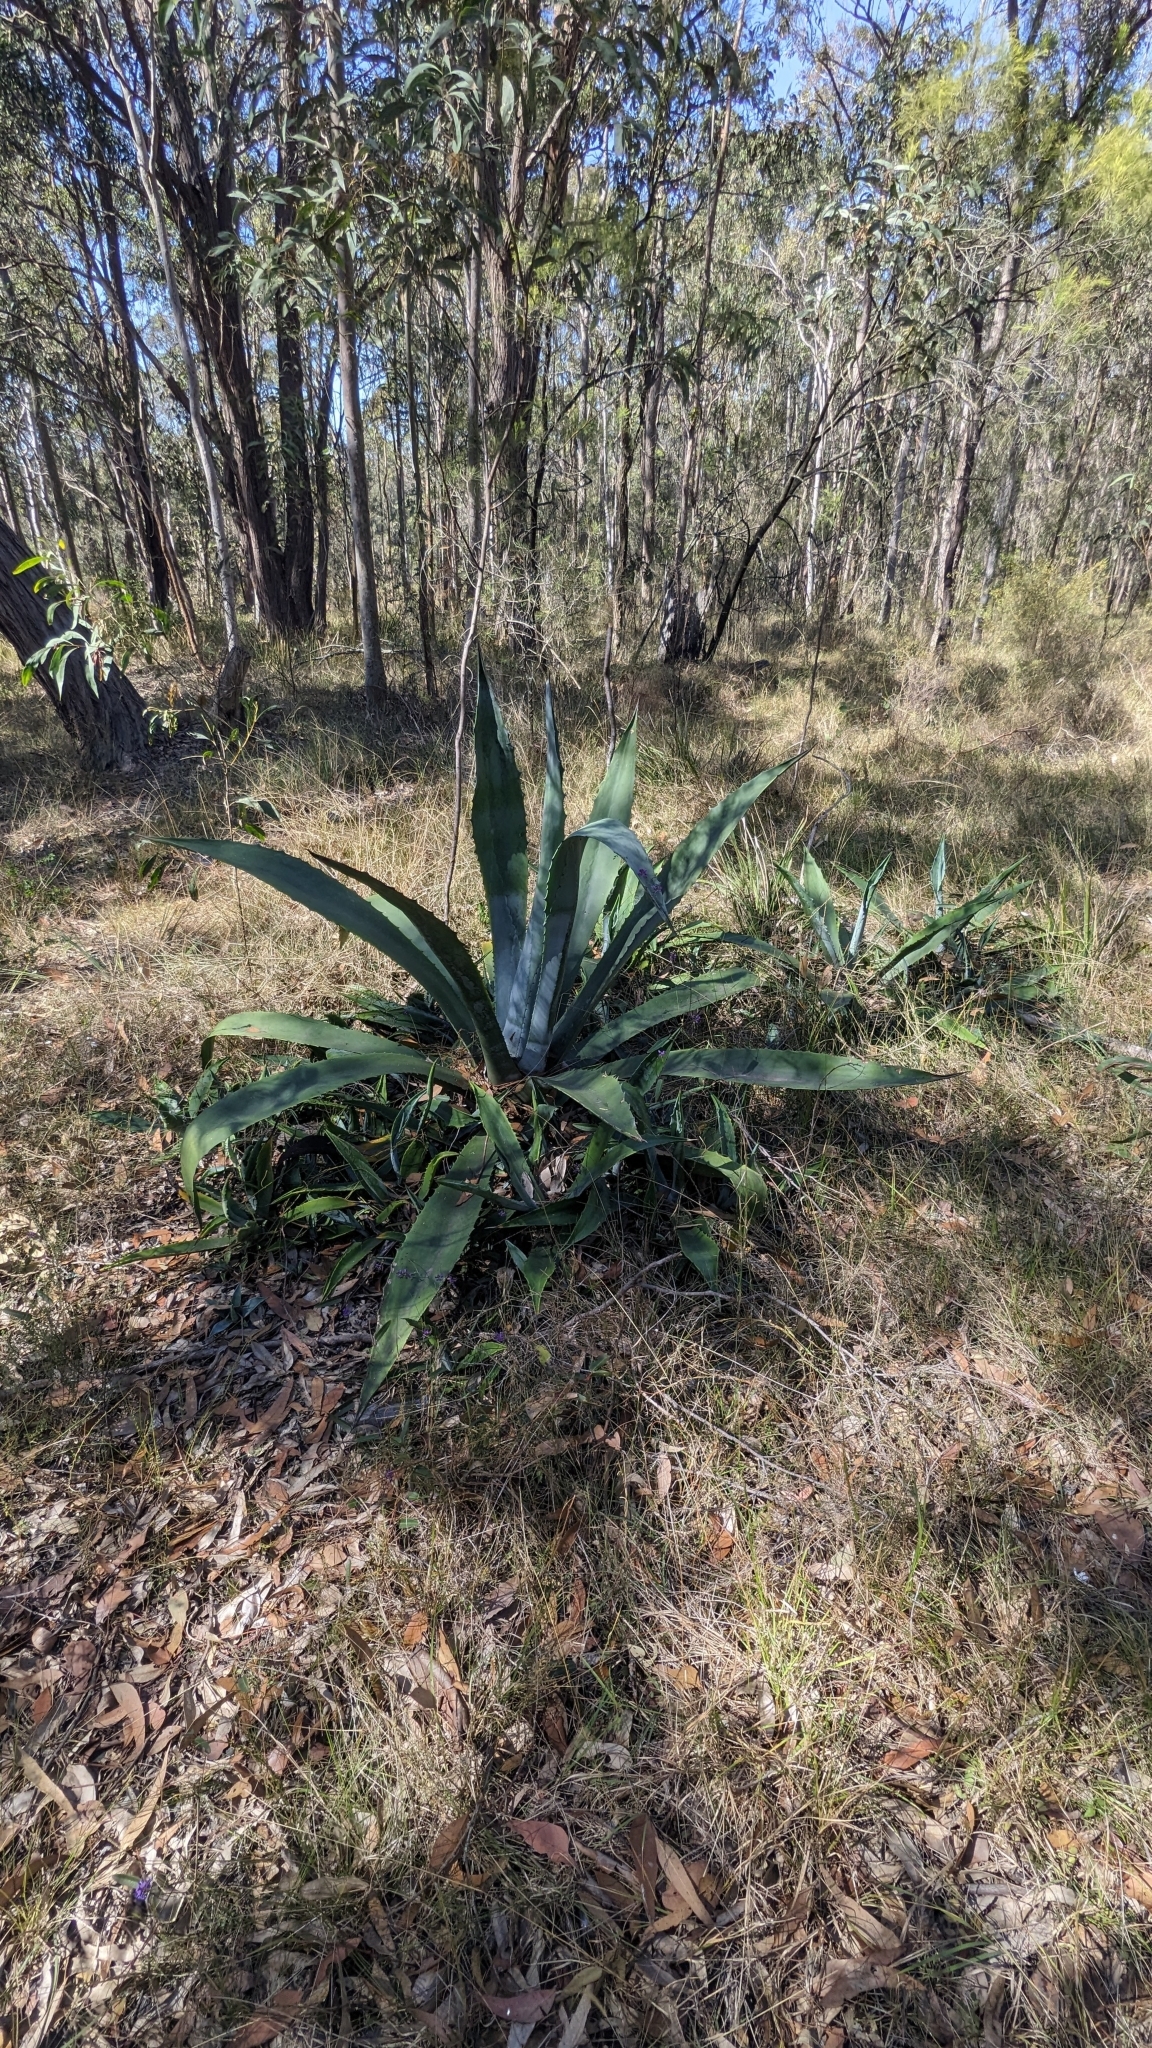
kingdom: Plantae
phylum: Tracheophyta
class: Liliopsida
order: Asparagales
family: Asparagaceae
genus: Agave
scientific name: Agave americana
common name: Centuryplant
